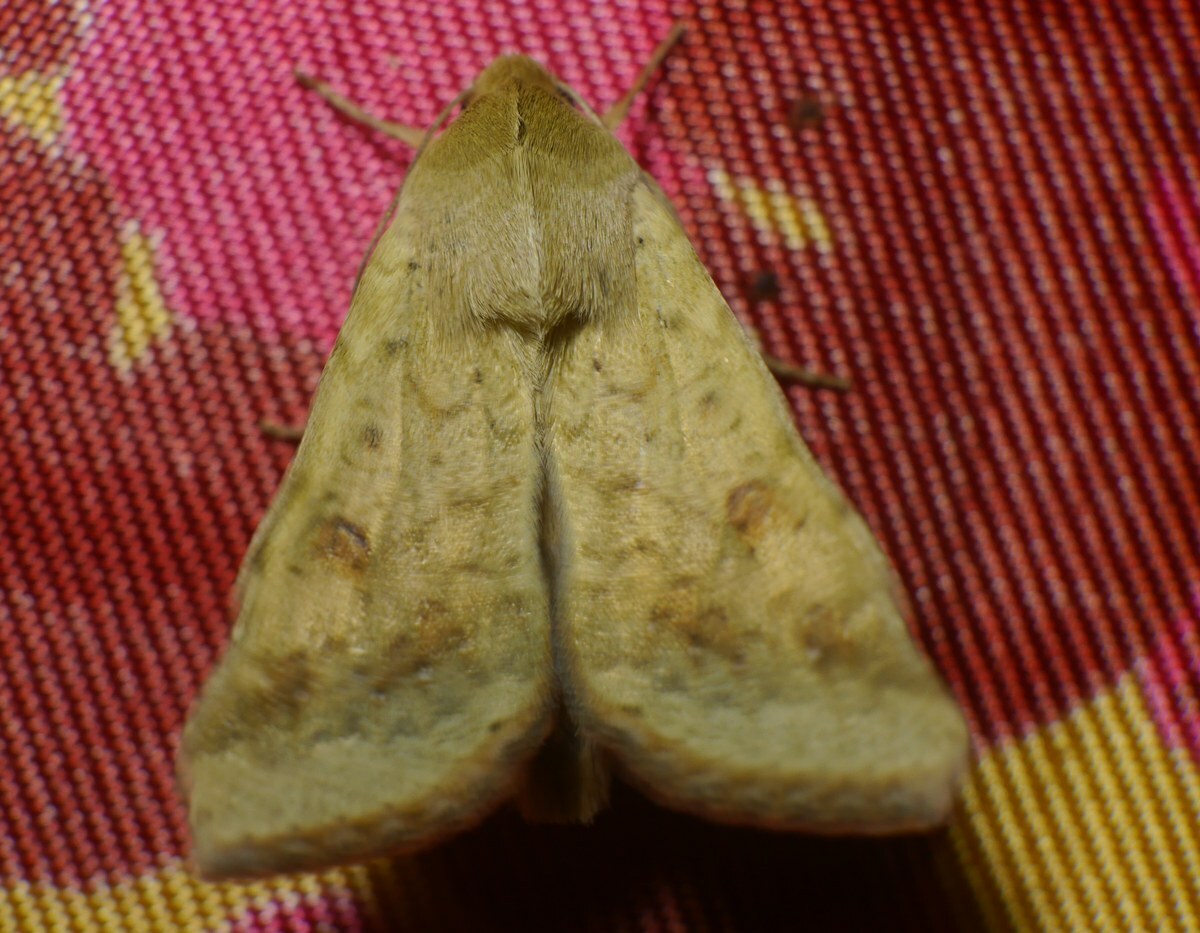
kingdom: Animalia
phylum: Arthropoda
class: Insecta
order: Lepidoptera
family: Noctuidae
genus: Helicoverpa
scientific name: Helicoverpa armigera
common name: Cotton bollworm
